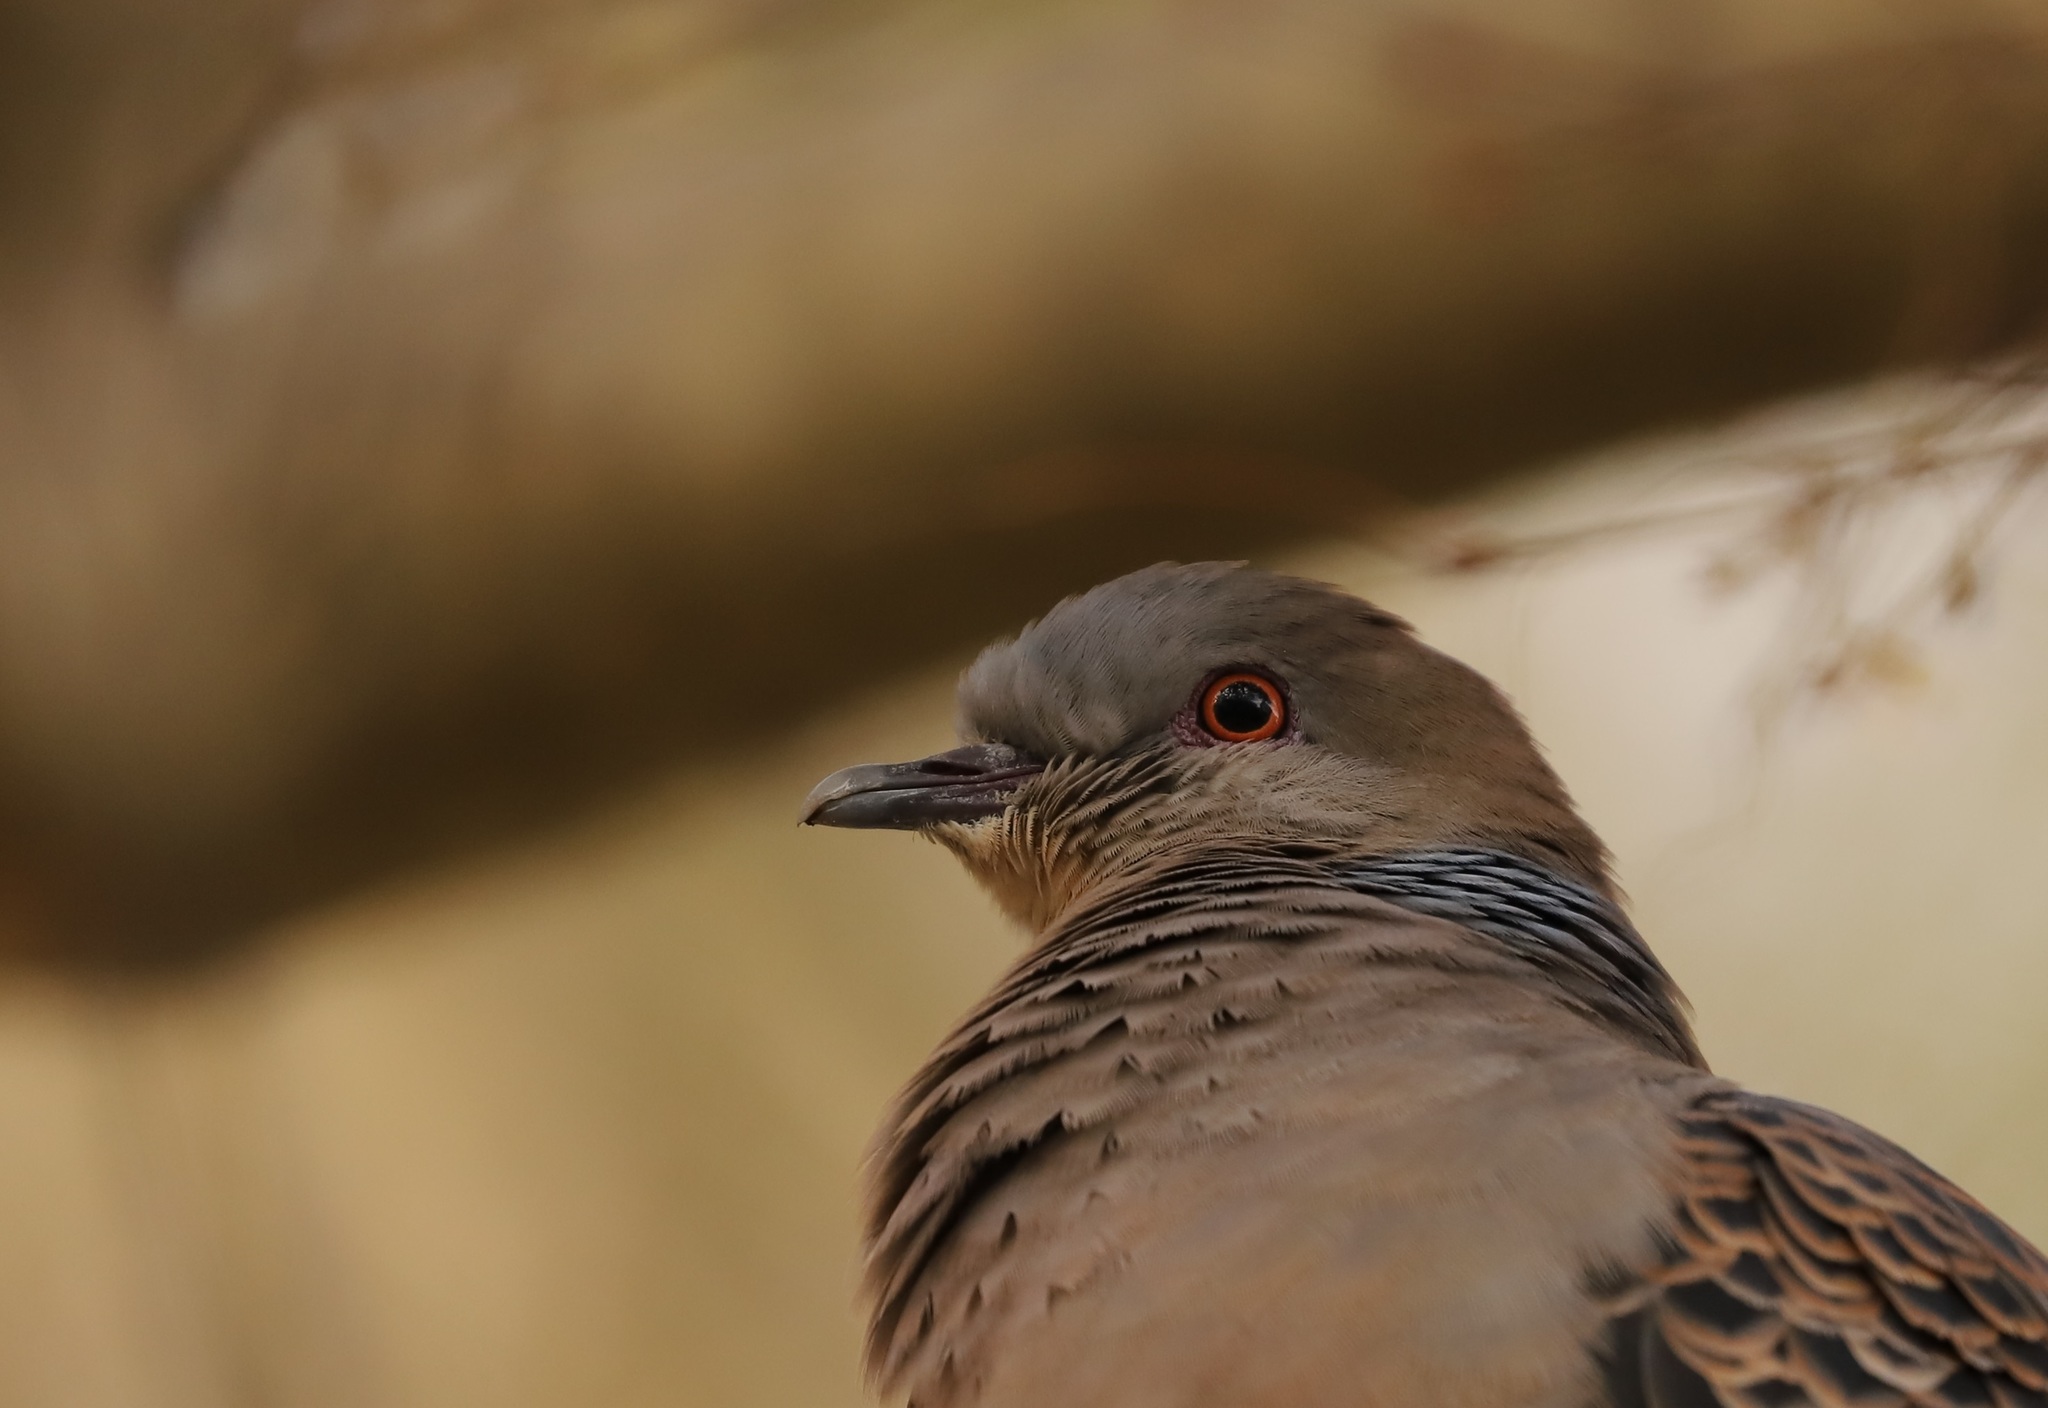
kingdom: Animalia
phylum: Chordata
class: Aves
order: Columbiformes
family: Columbidae
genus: Streptopelia
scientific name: Streptopelia orientalis
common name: Oriental turtle dove
